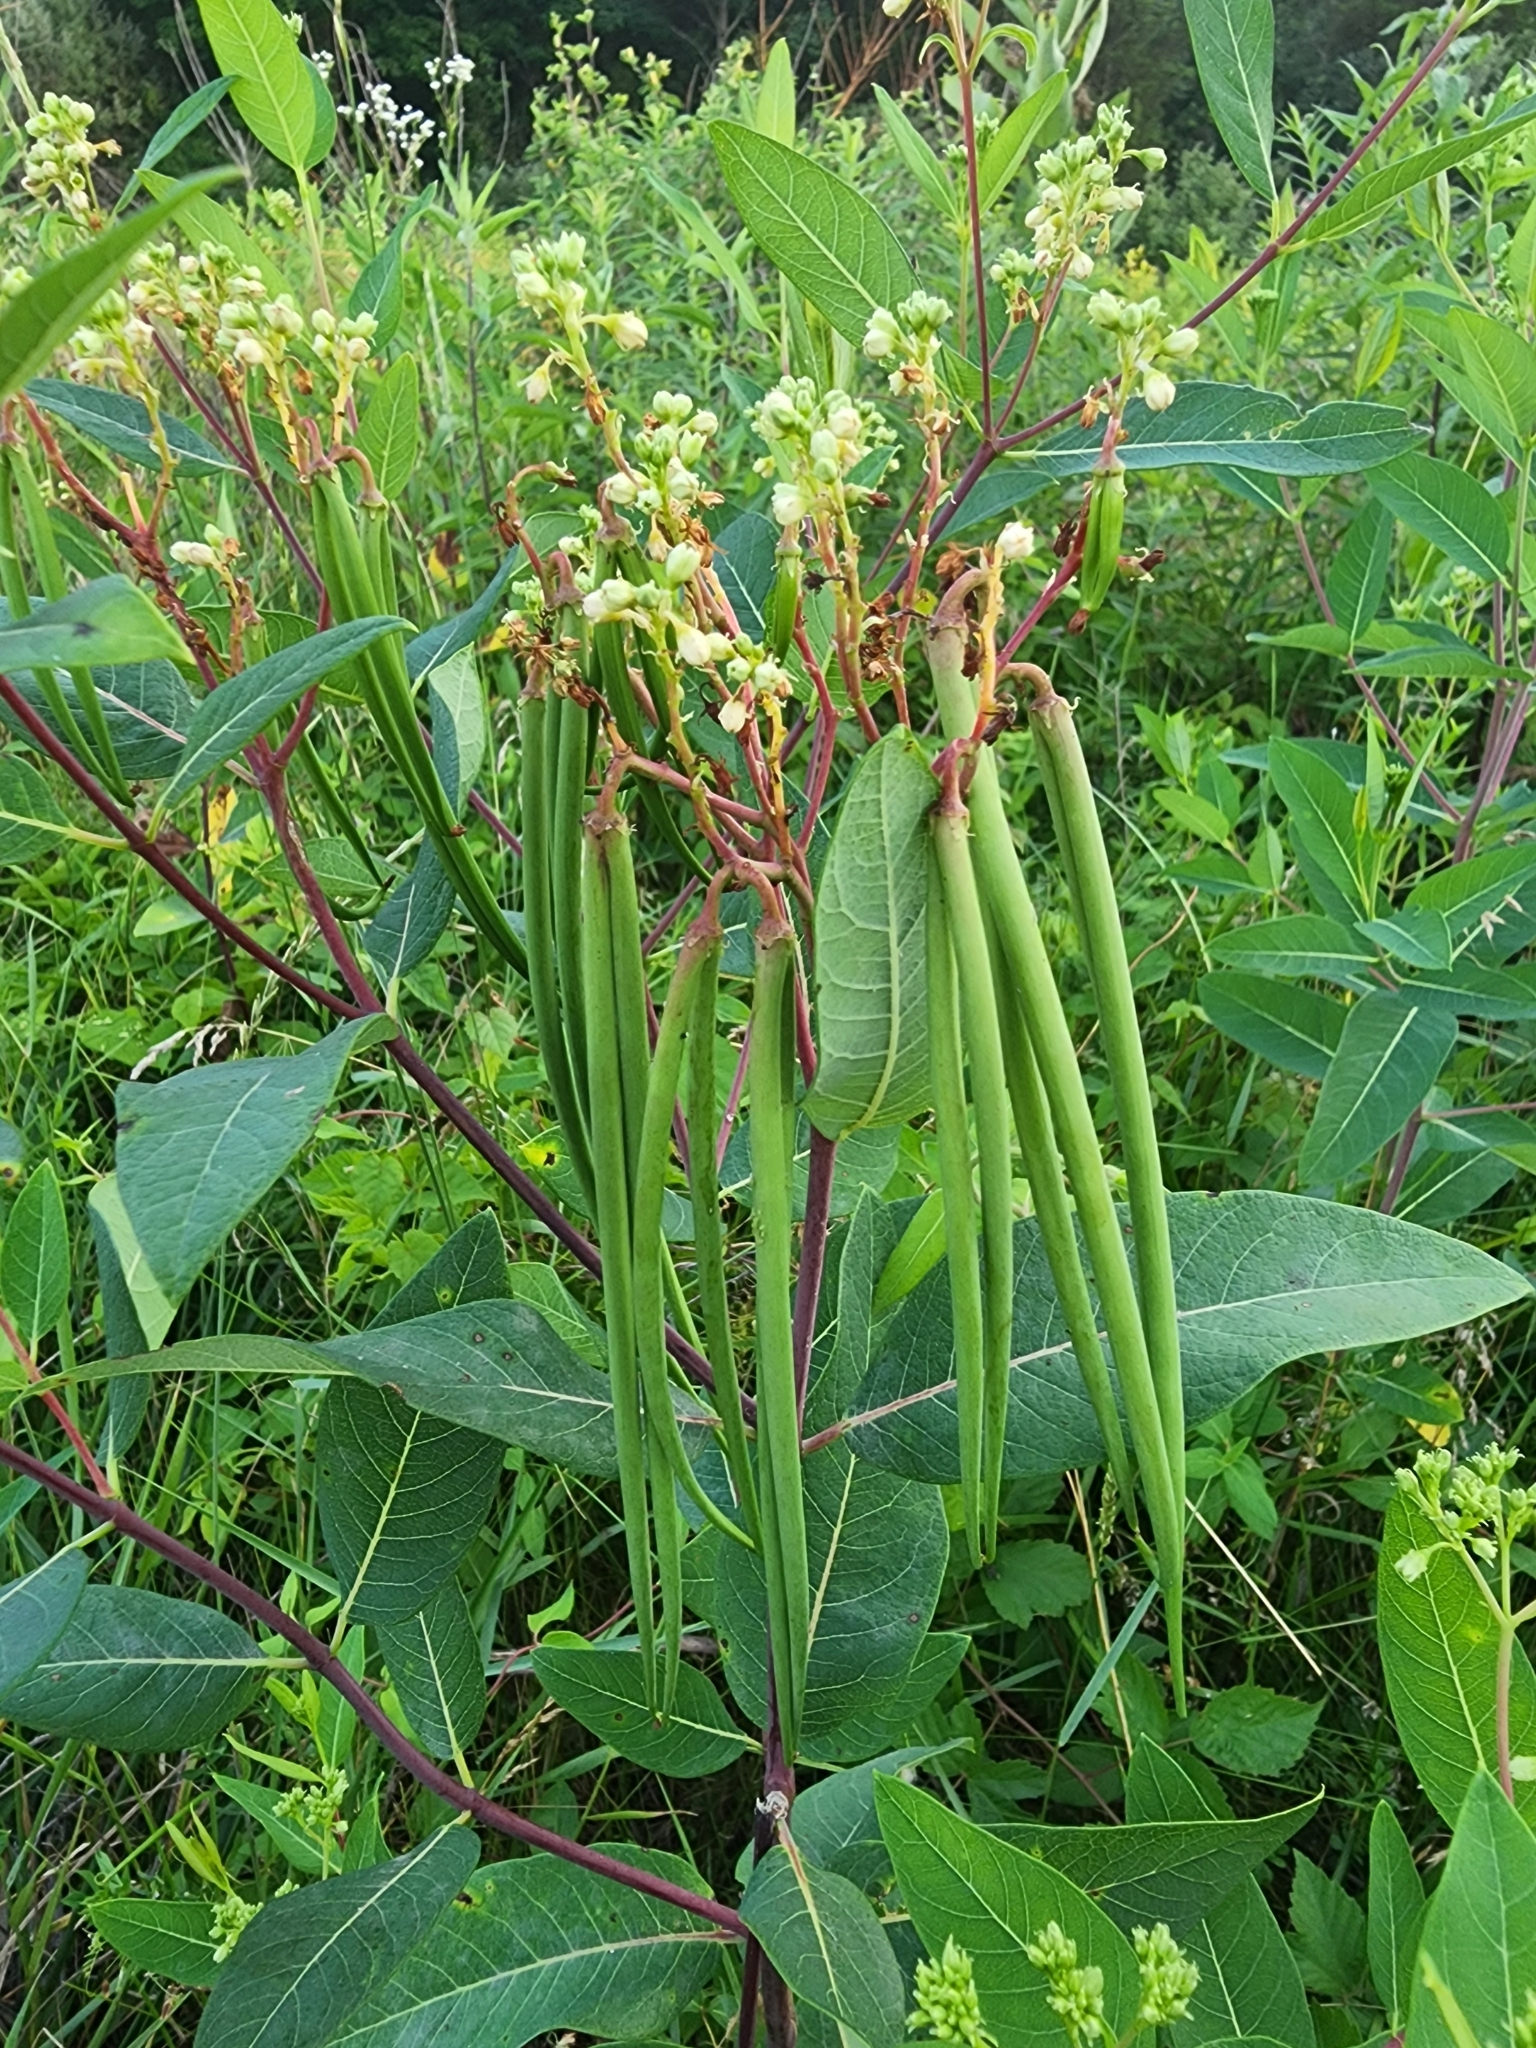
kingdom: Plantae
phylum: Tracheophyta
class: Magnoliopsida
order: Gentianales
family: Apocynaceae
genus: Apocynum
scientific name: Apocynum cannabinum
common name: Hemp dogbane
